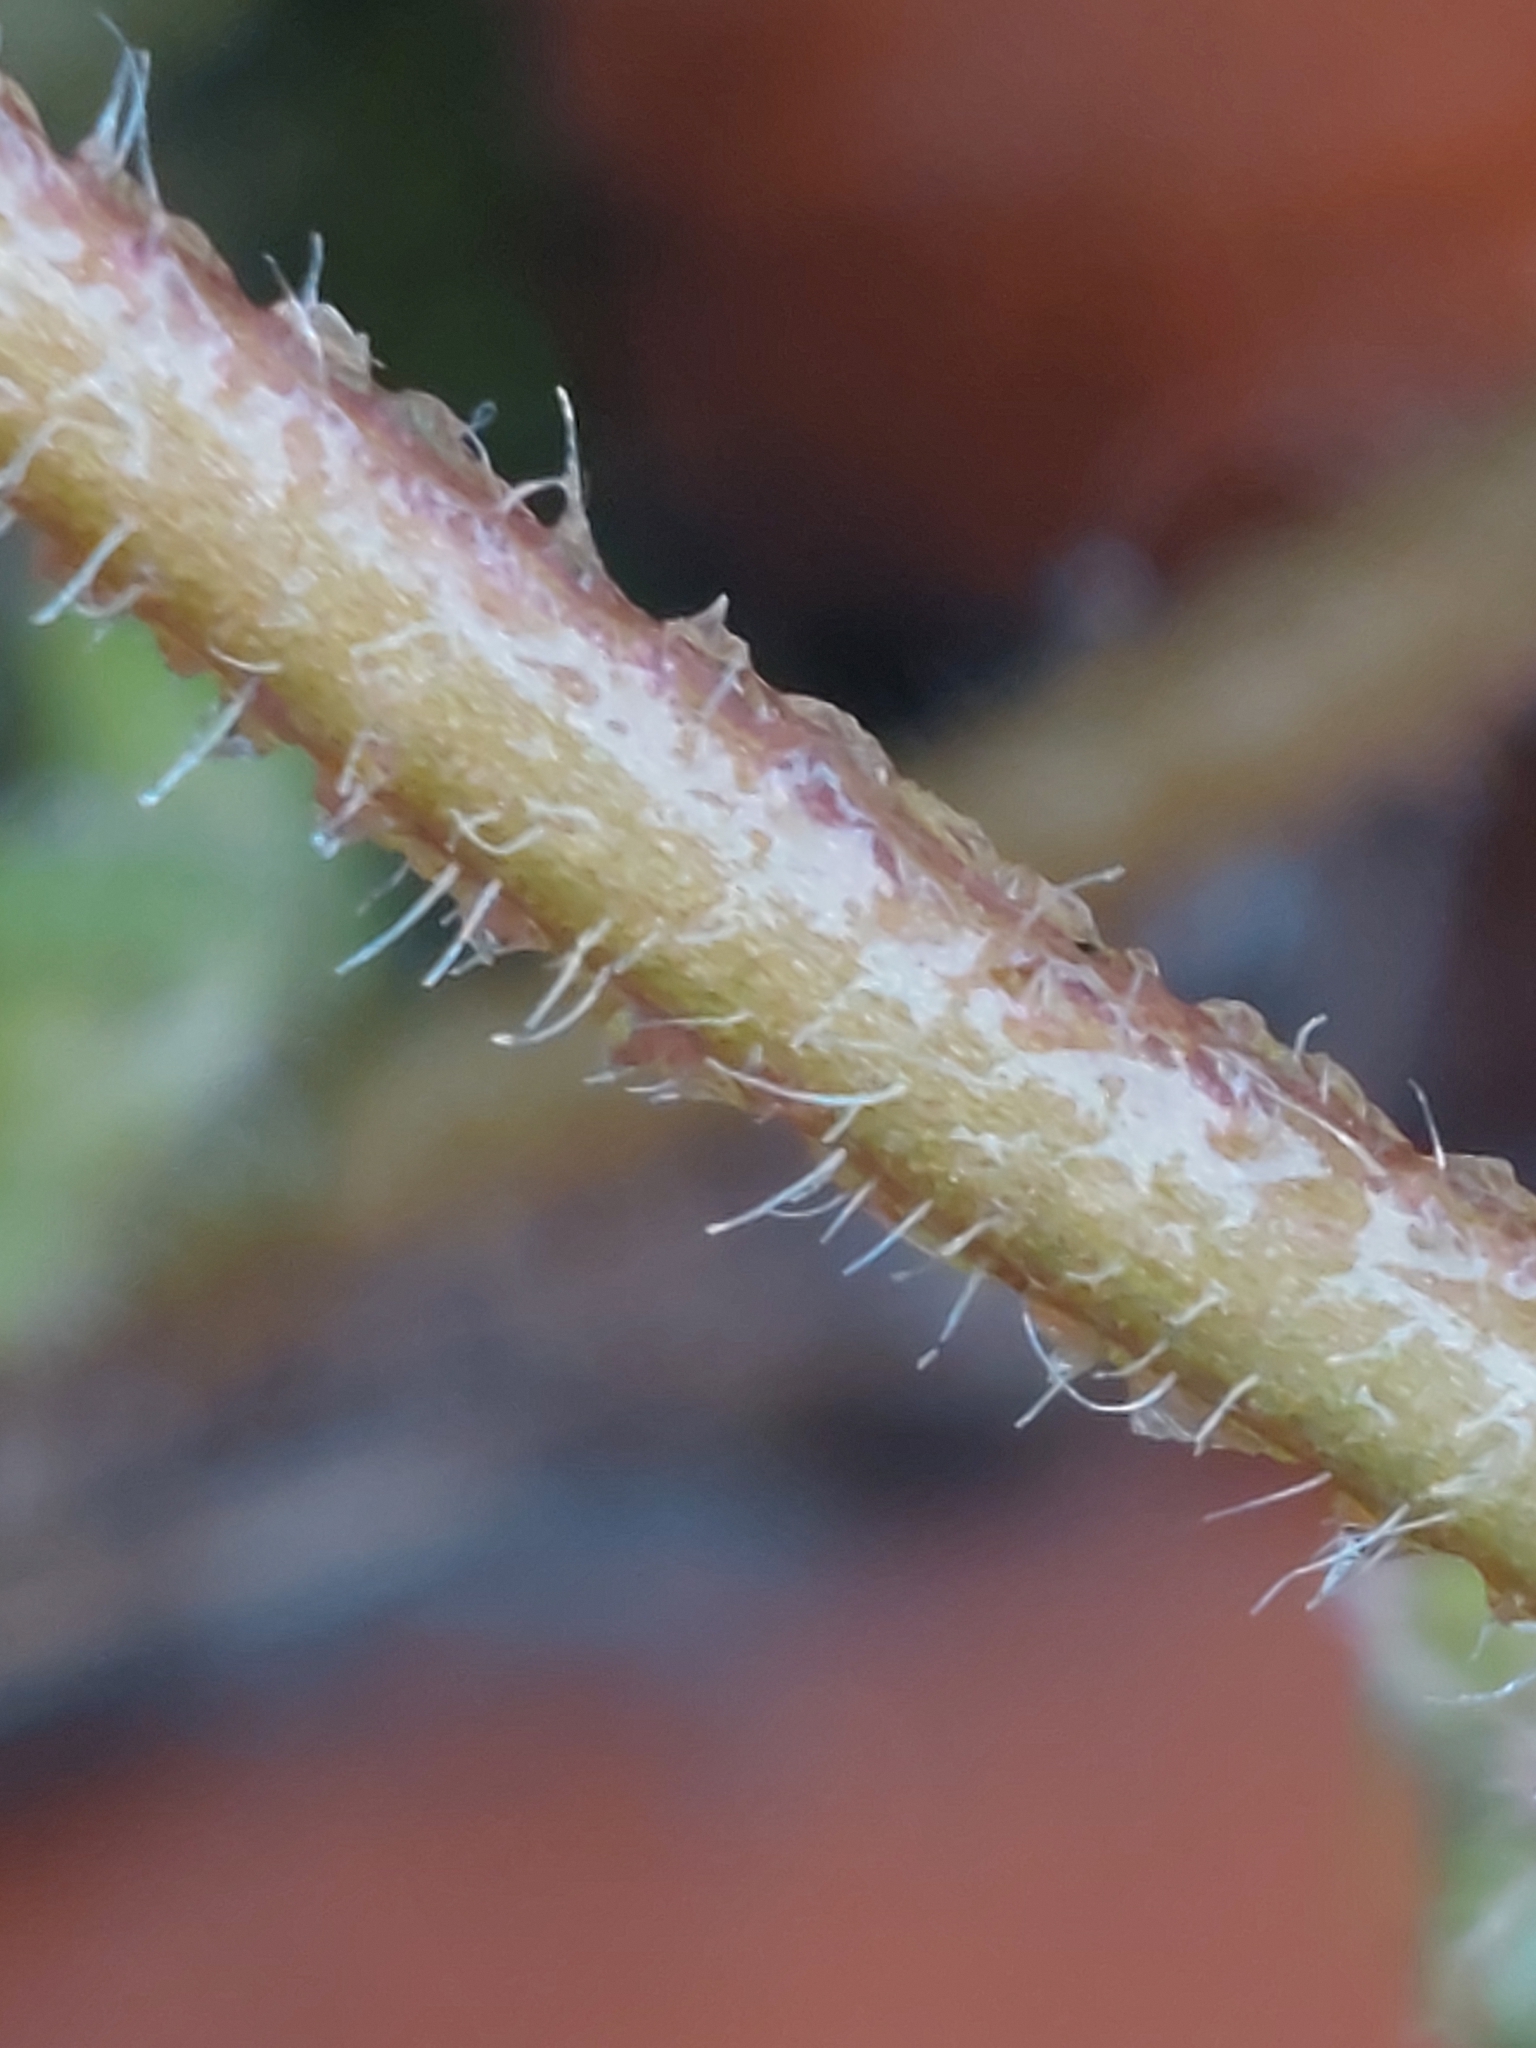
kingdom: Plantae
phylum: Tracheophyta
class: Magnoliopsida
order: Lamiales
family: Plantaginaceae
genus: Veronica
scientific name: Veronica hederifolia
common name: Ivy-leaved speedwell
